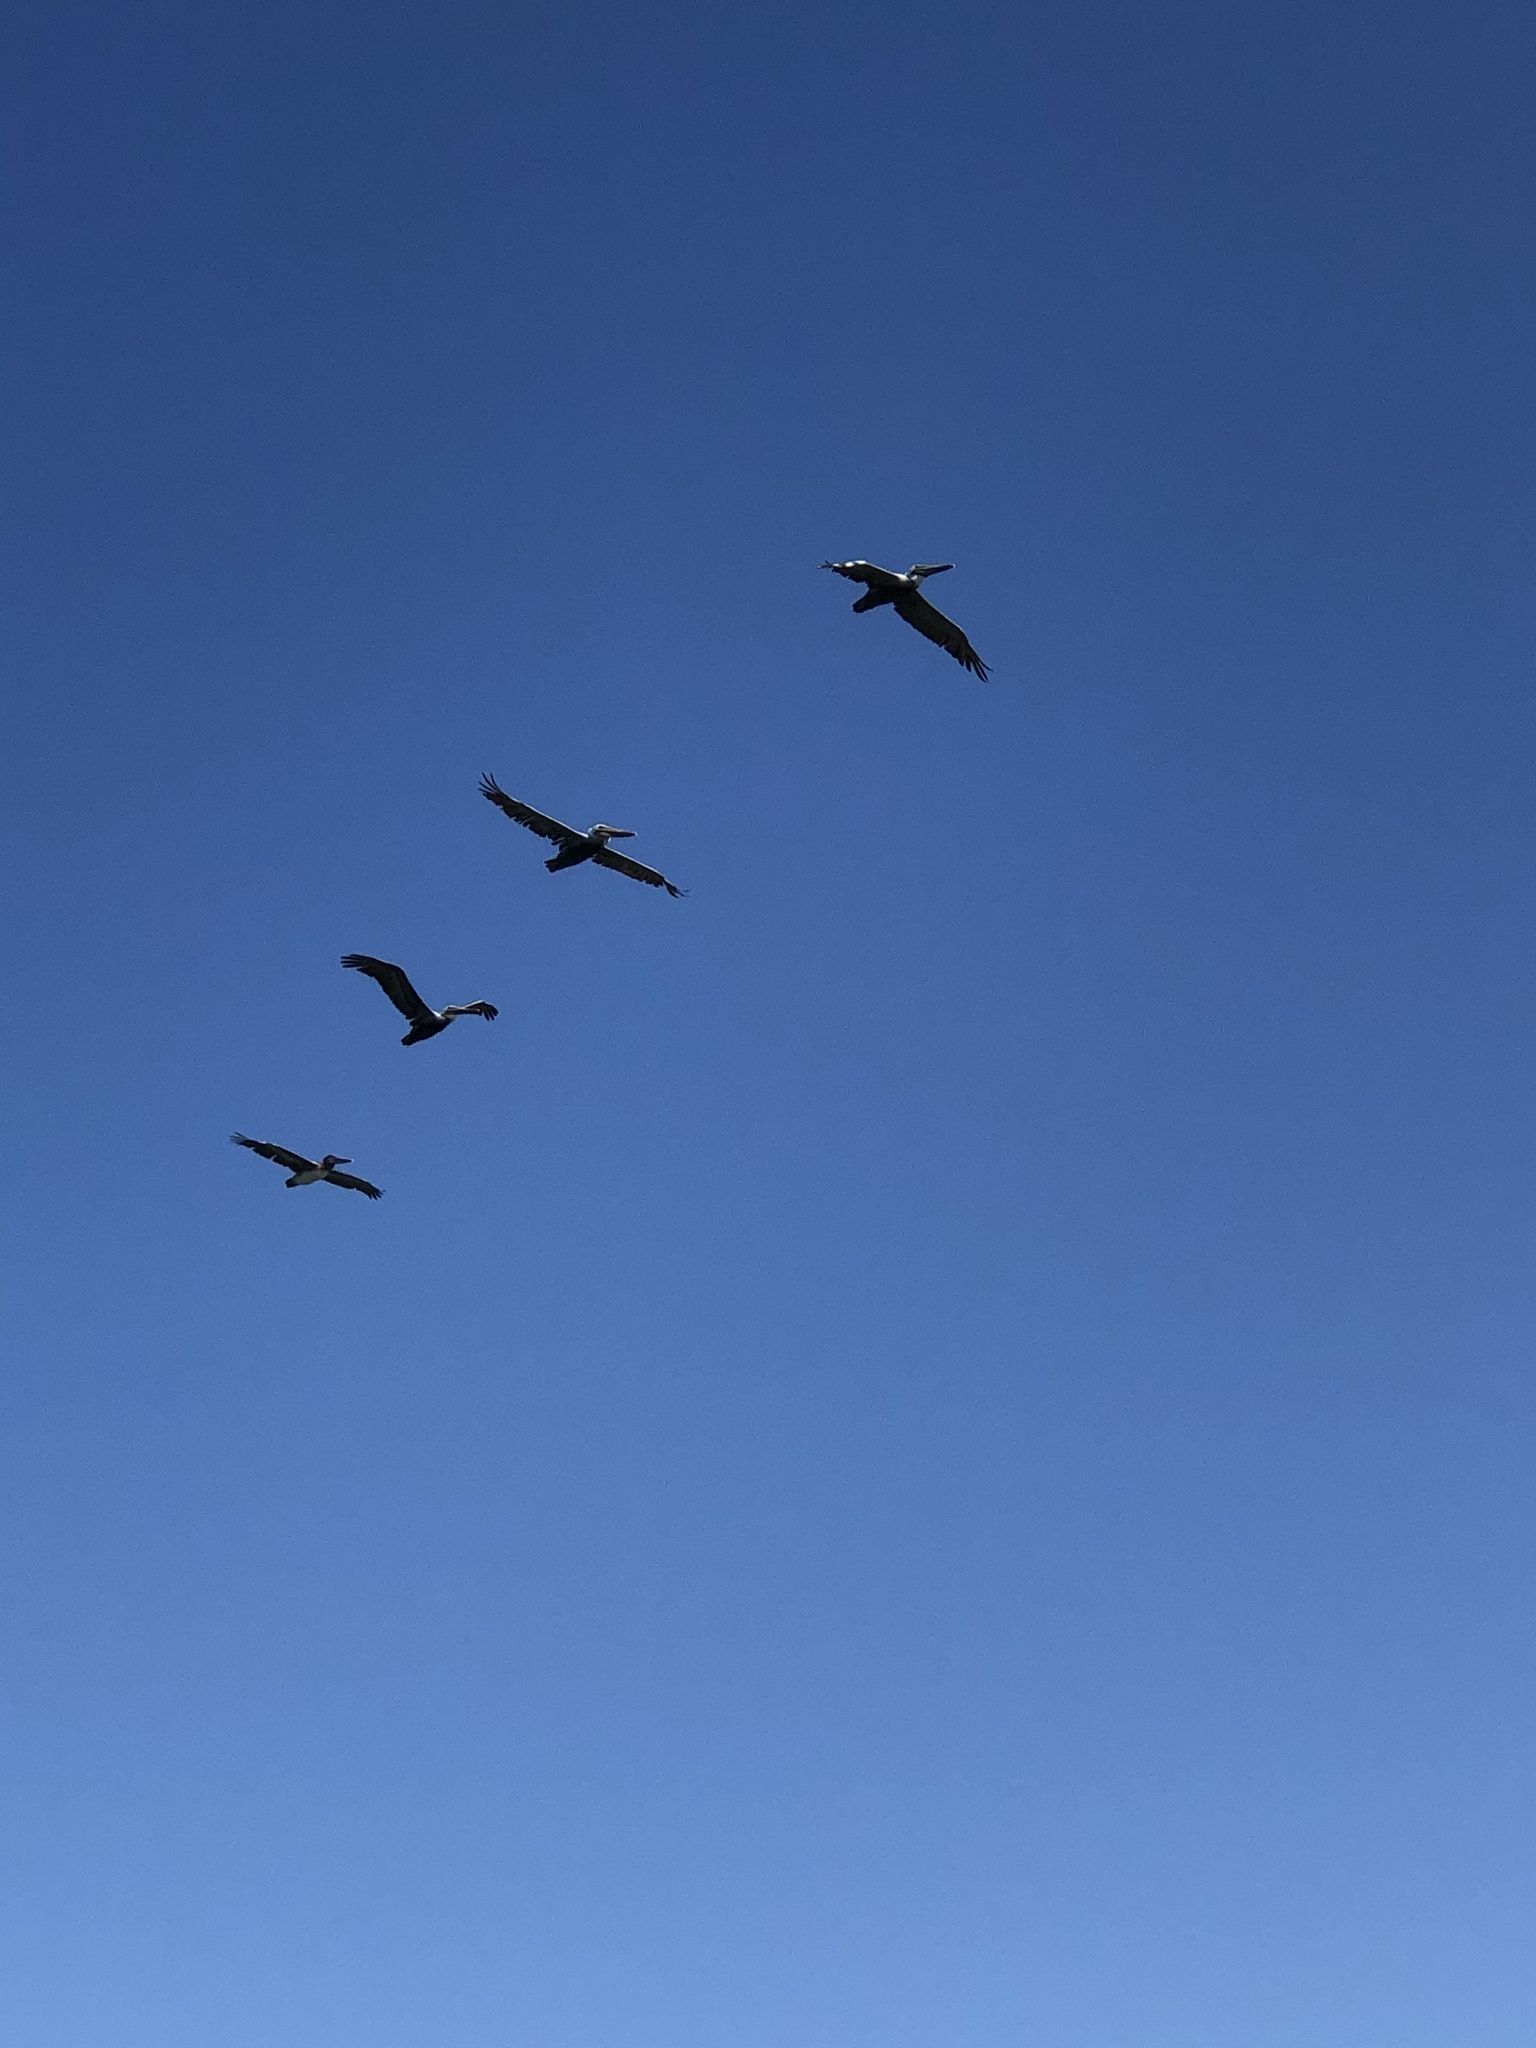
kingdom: Animalia
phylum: Chordata
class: Aves
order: Pelecaniformes
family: Pelecanidae
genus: Pelecanus
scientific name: Pelecanus occidentalis
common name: Brown pelican
